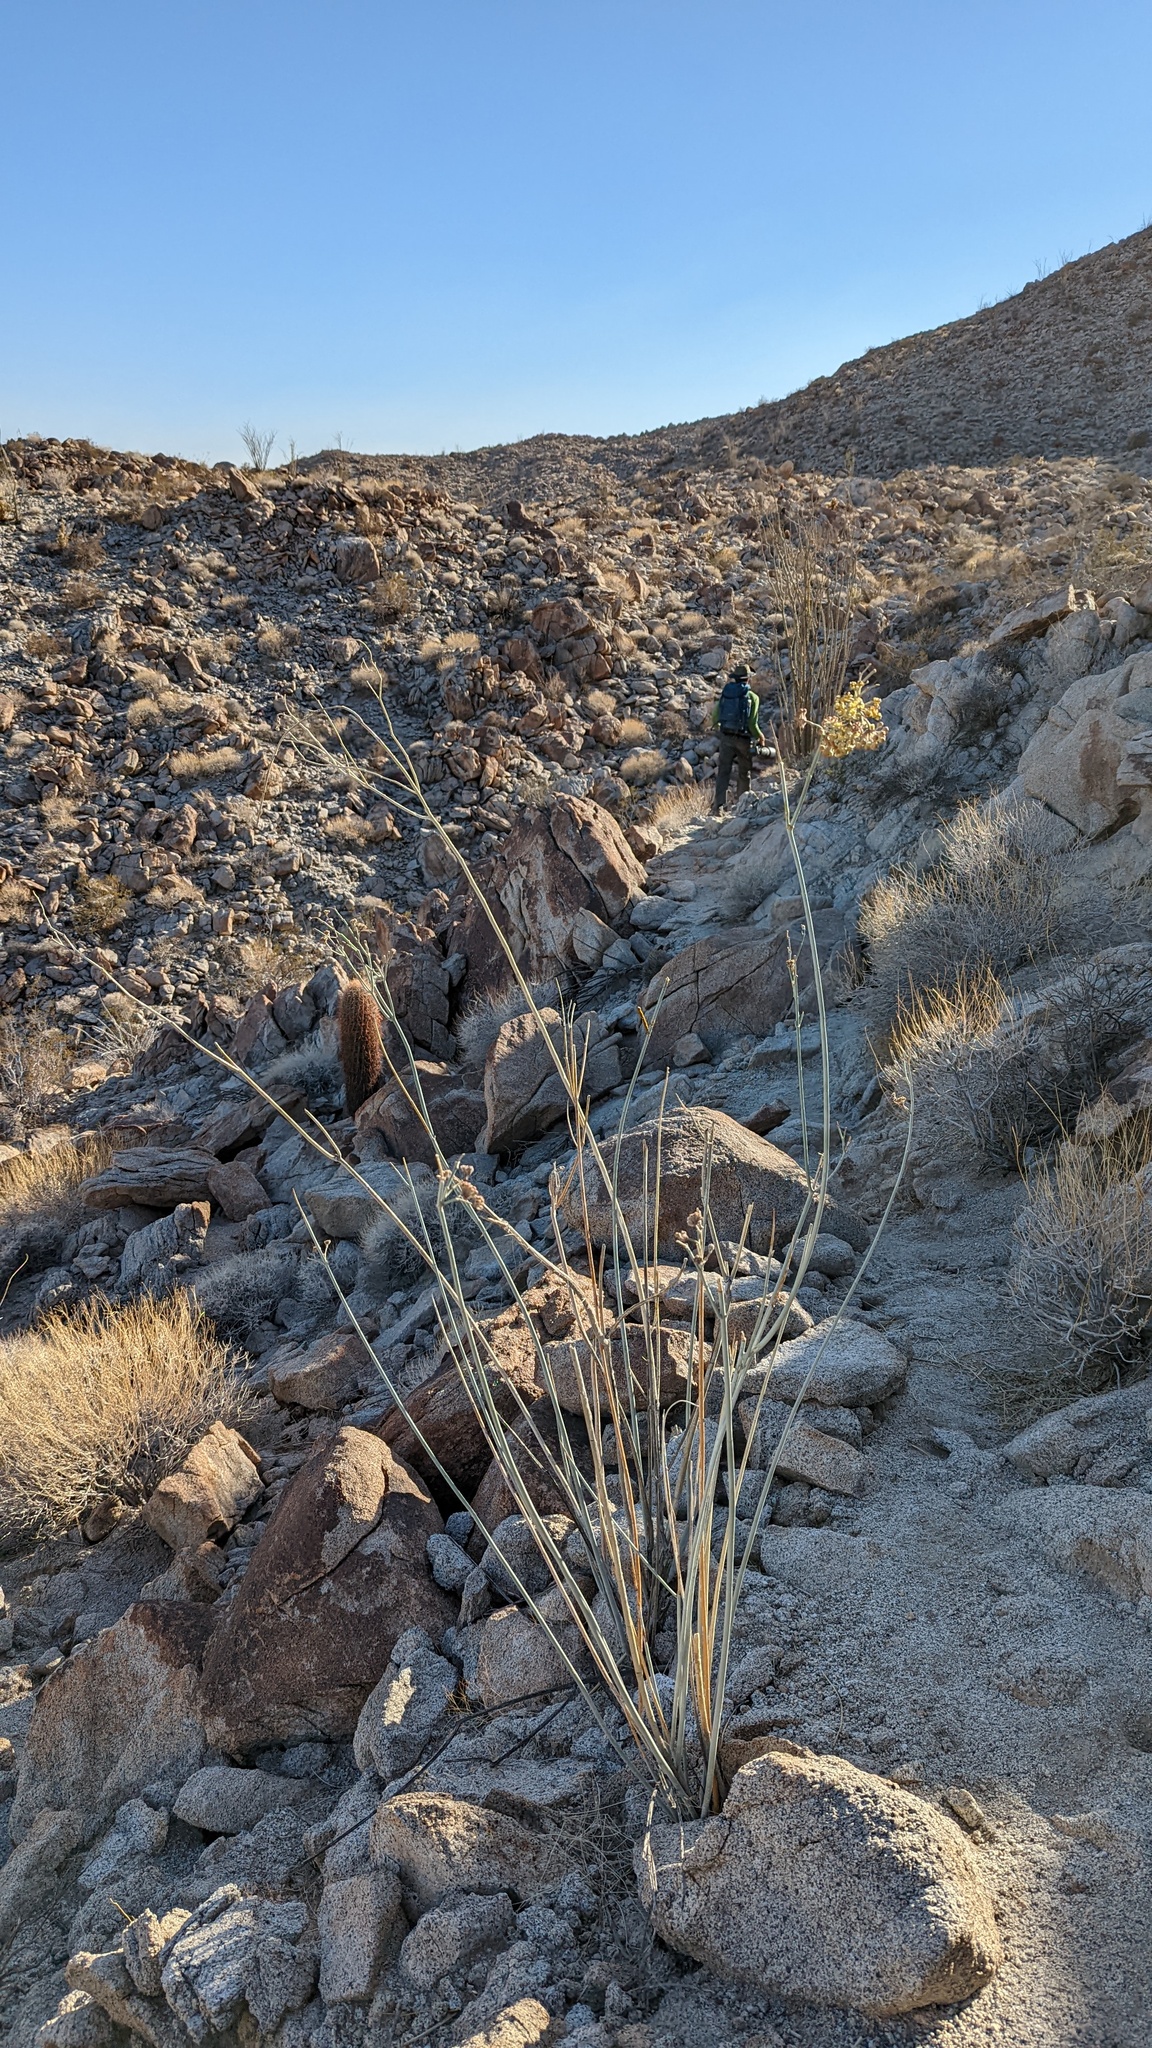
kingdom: Plantae
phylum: Tracheophyta
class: Magnoliopsida
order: Gentianales
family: Apocynaceae
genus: Asclepias
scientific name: Asclepias albicans
